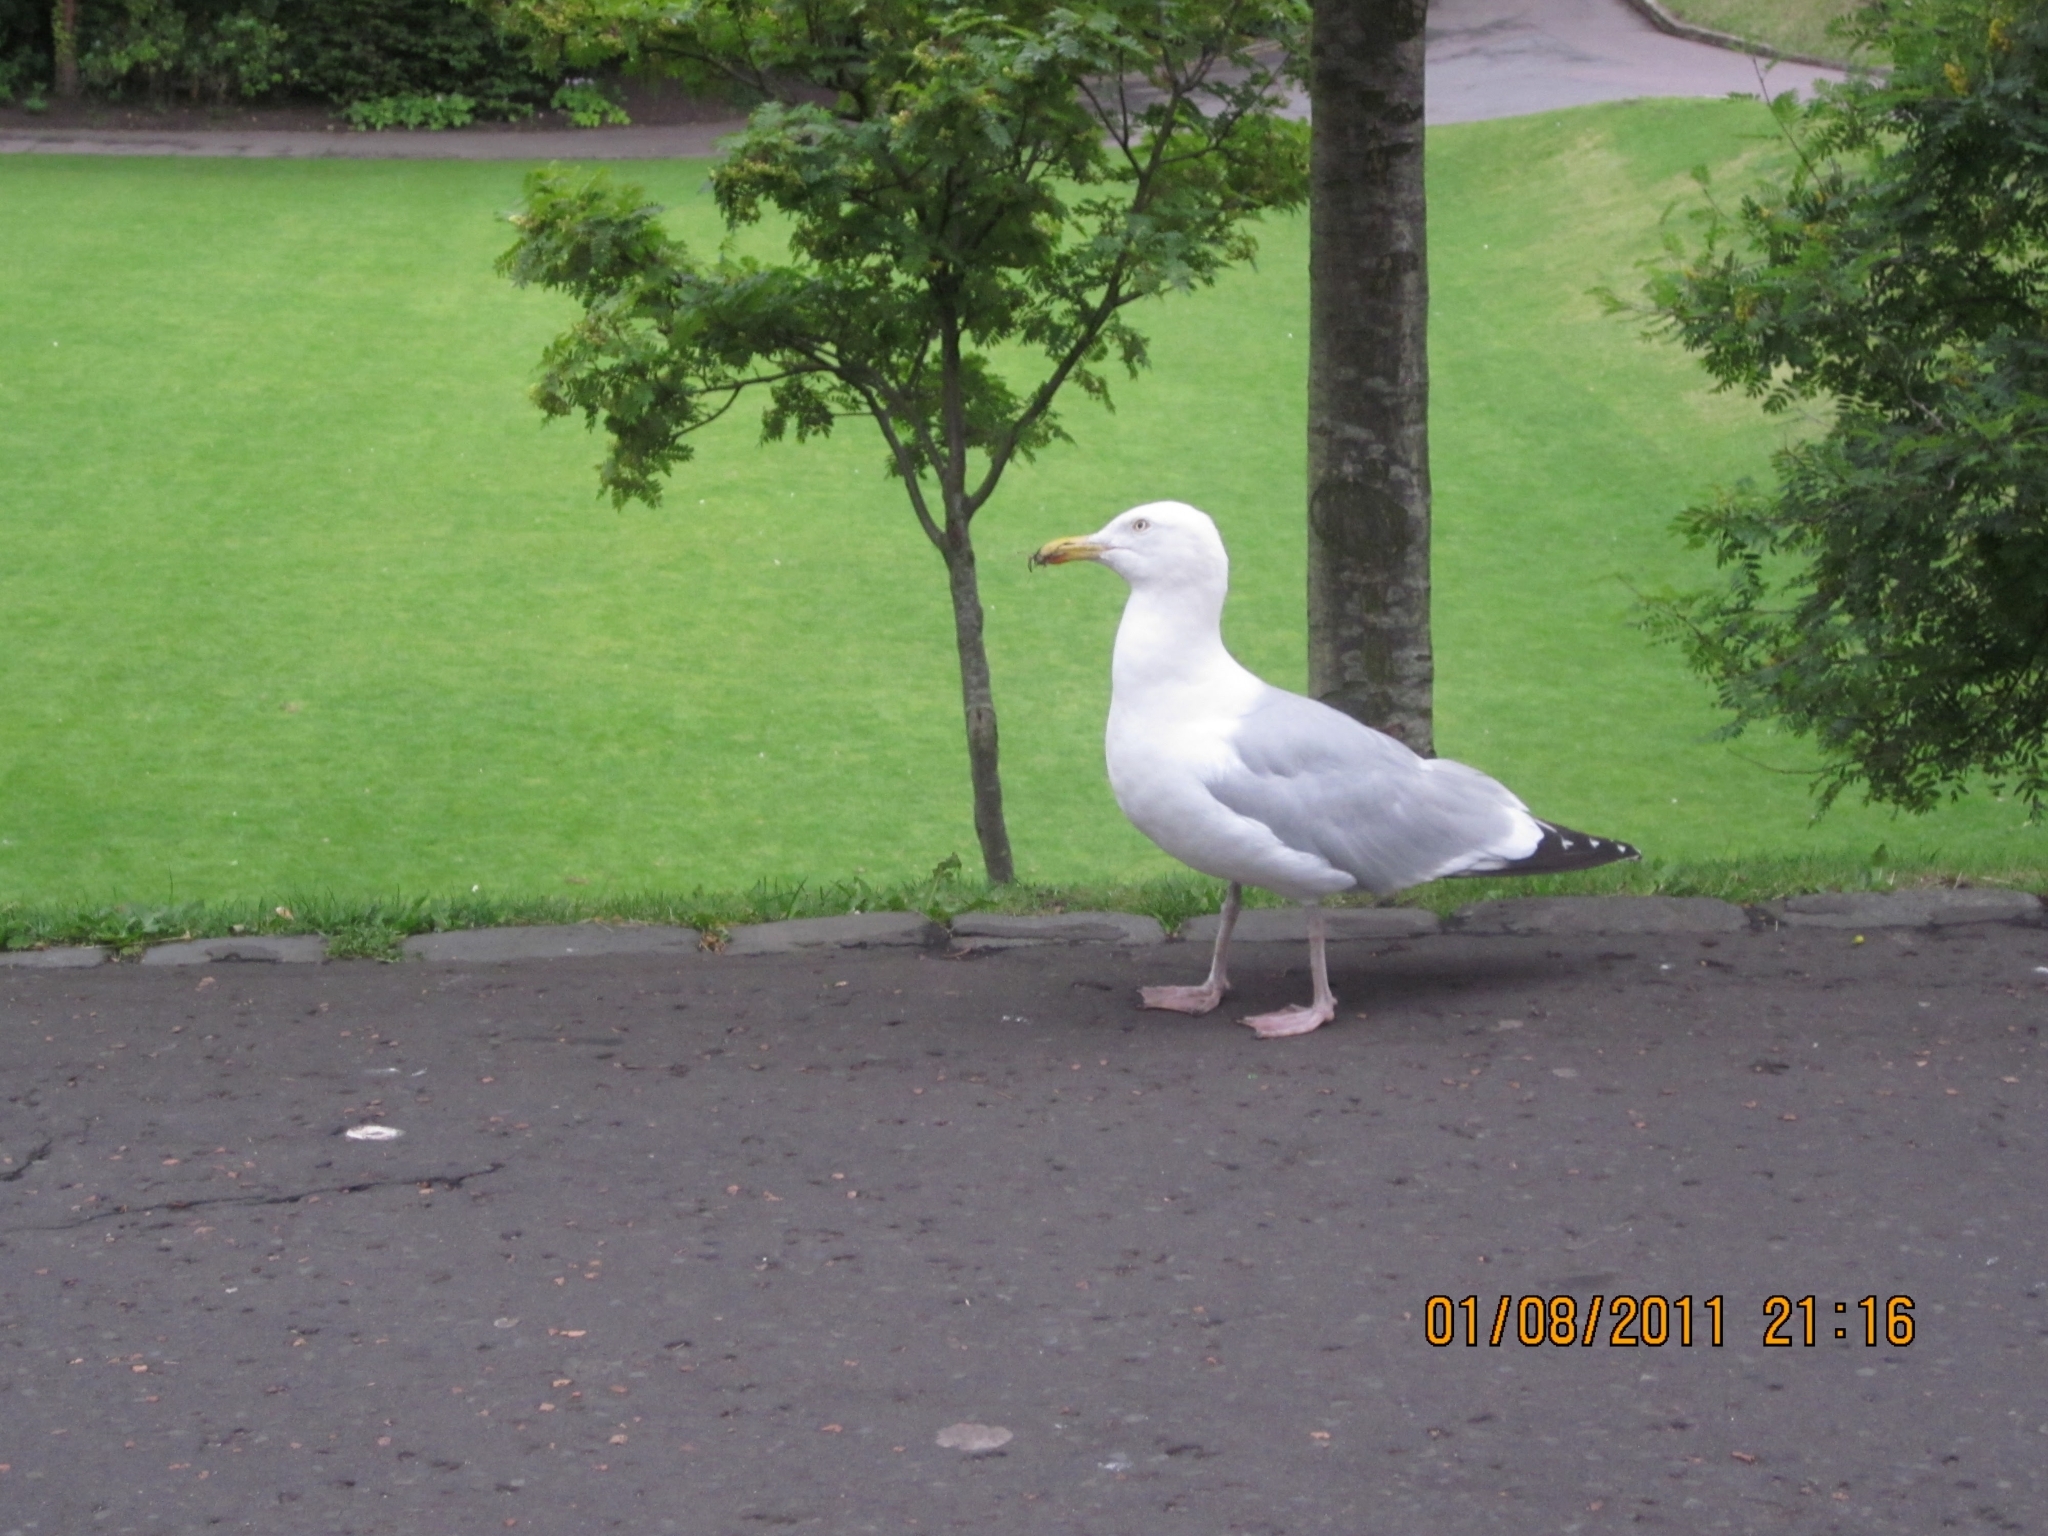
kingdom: Animalia
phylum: Chordata
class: Aves
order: Charadriiformes
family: Laridae
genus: Larus
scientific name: Larus argentatus
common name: Herring gull
